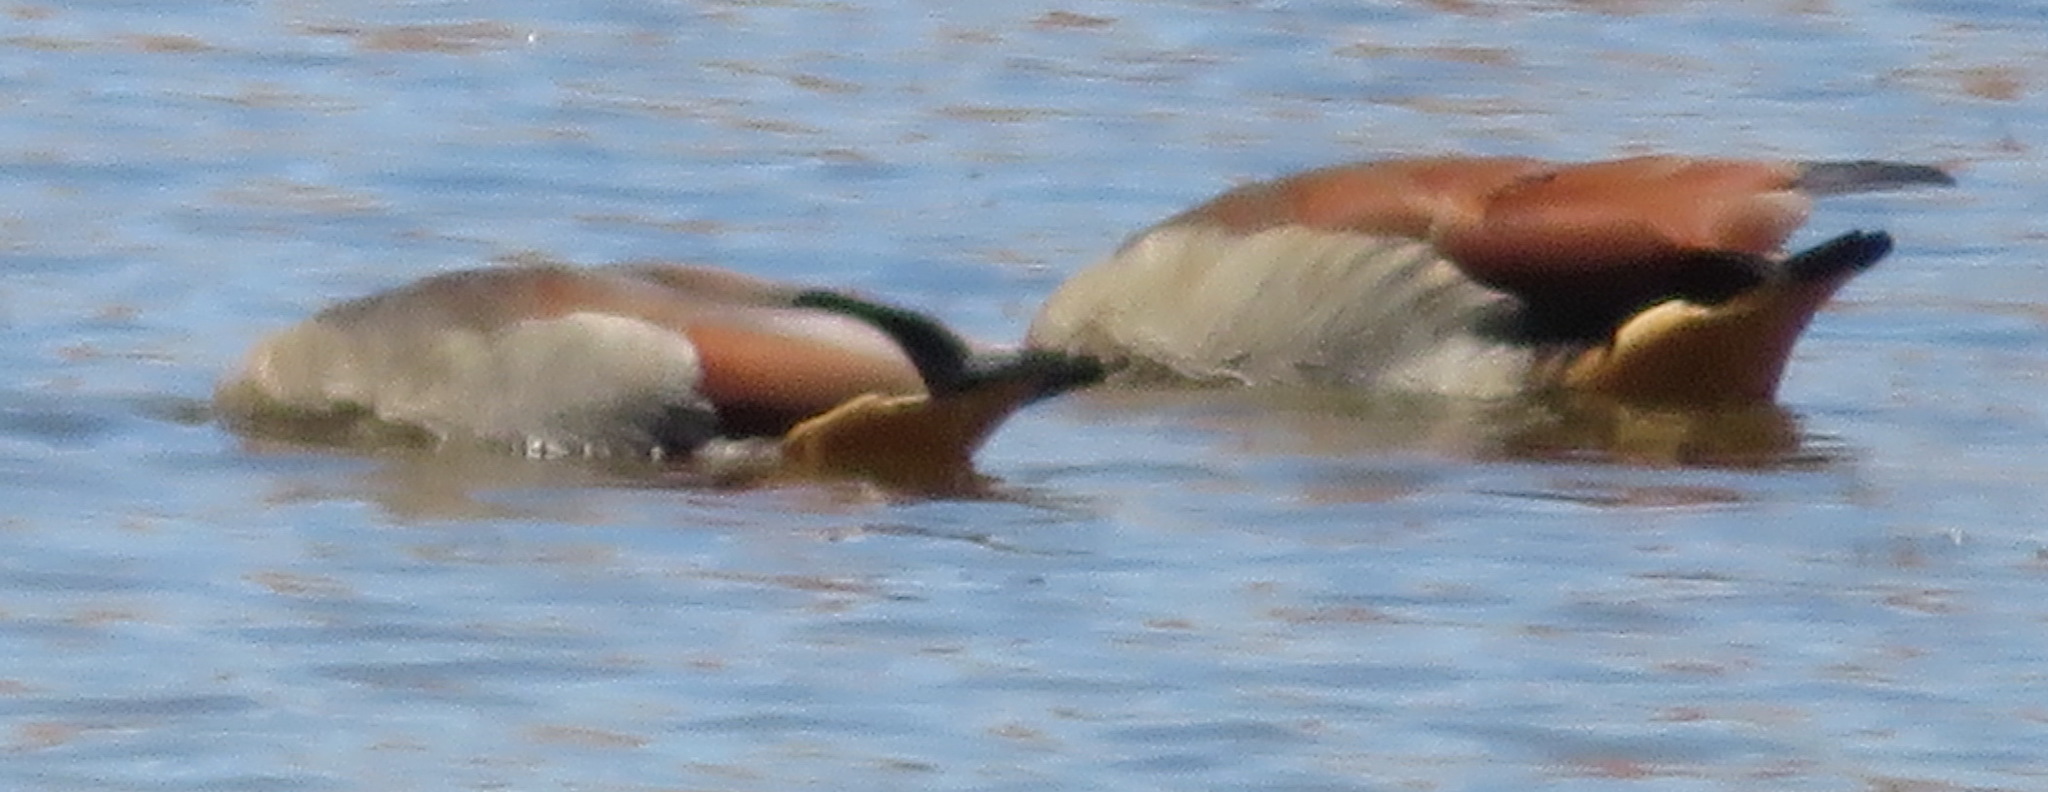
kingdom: Animalia
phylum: Chordata
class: Aves
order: Anseriformes
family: Anatidae
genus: Alopochen
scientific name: Alopochen aegyptiaca
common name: Egyptian goose
